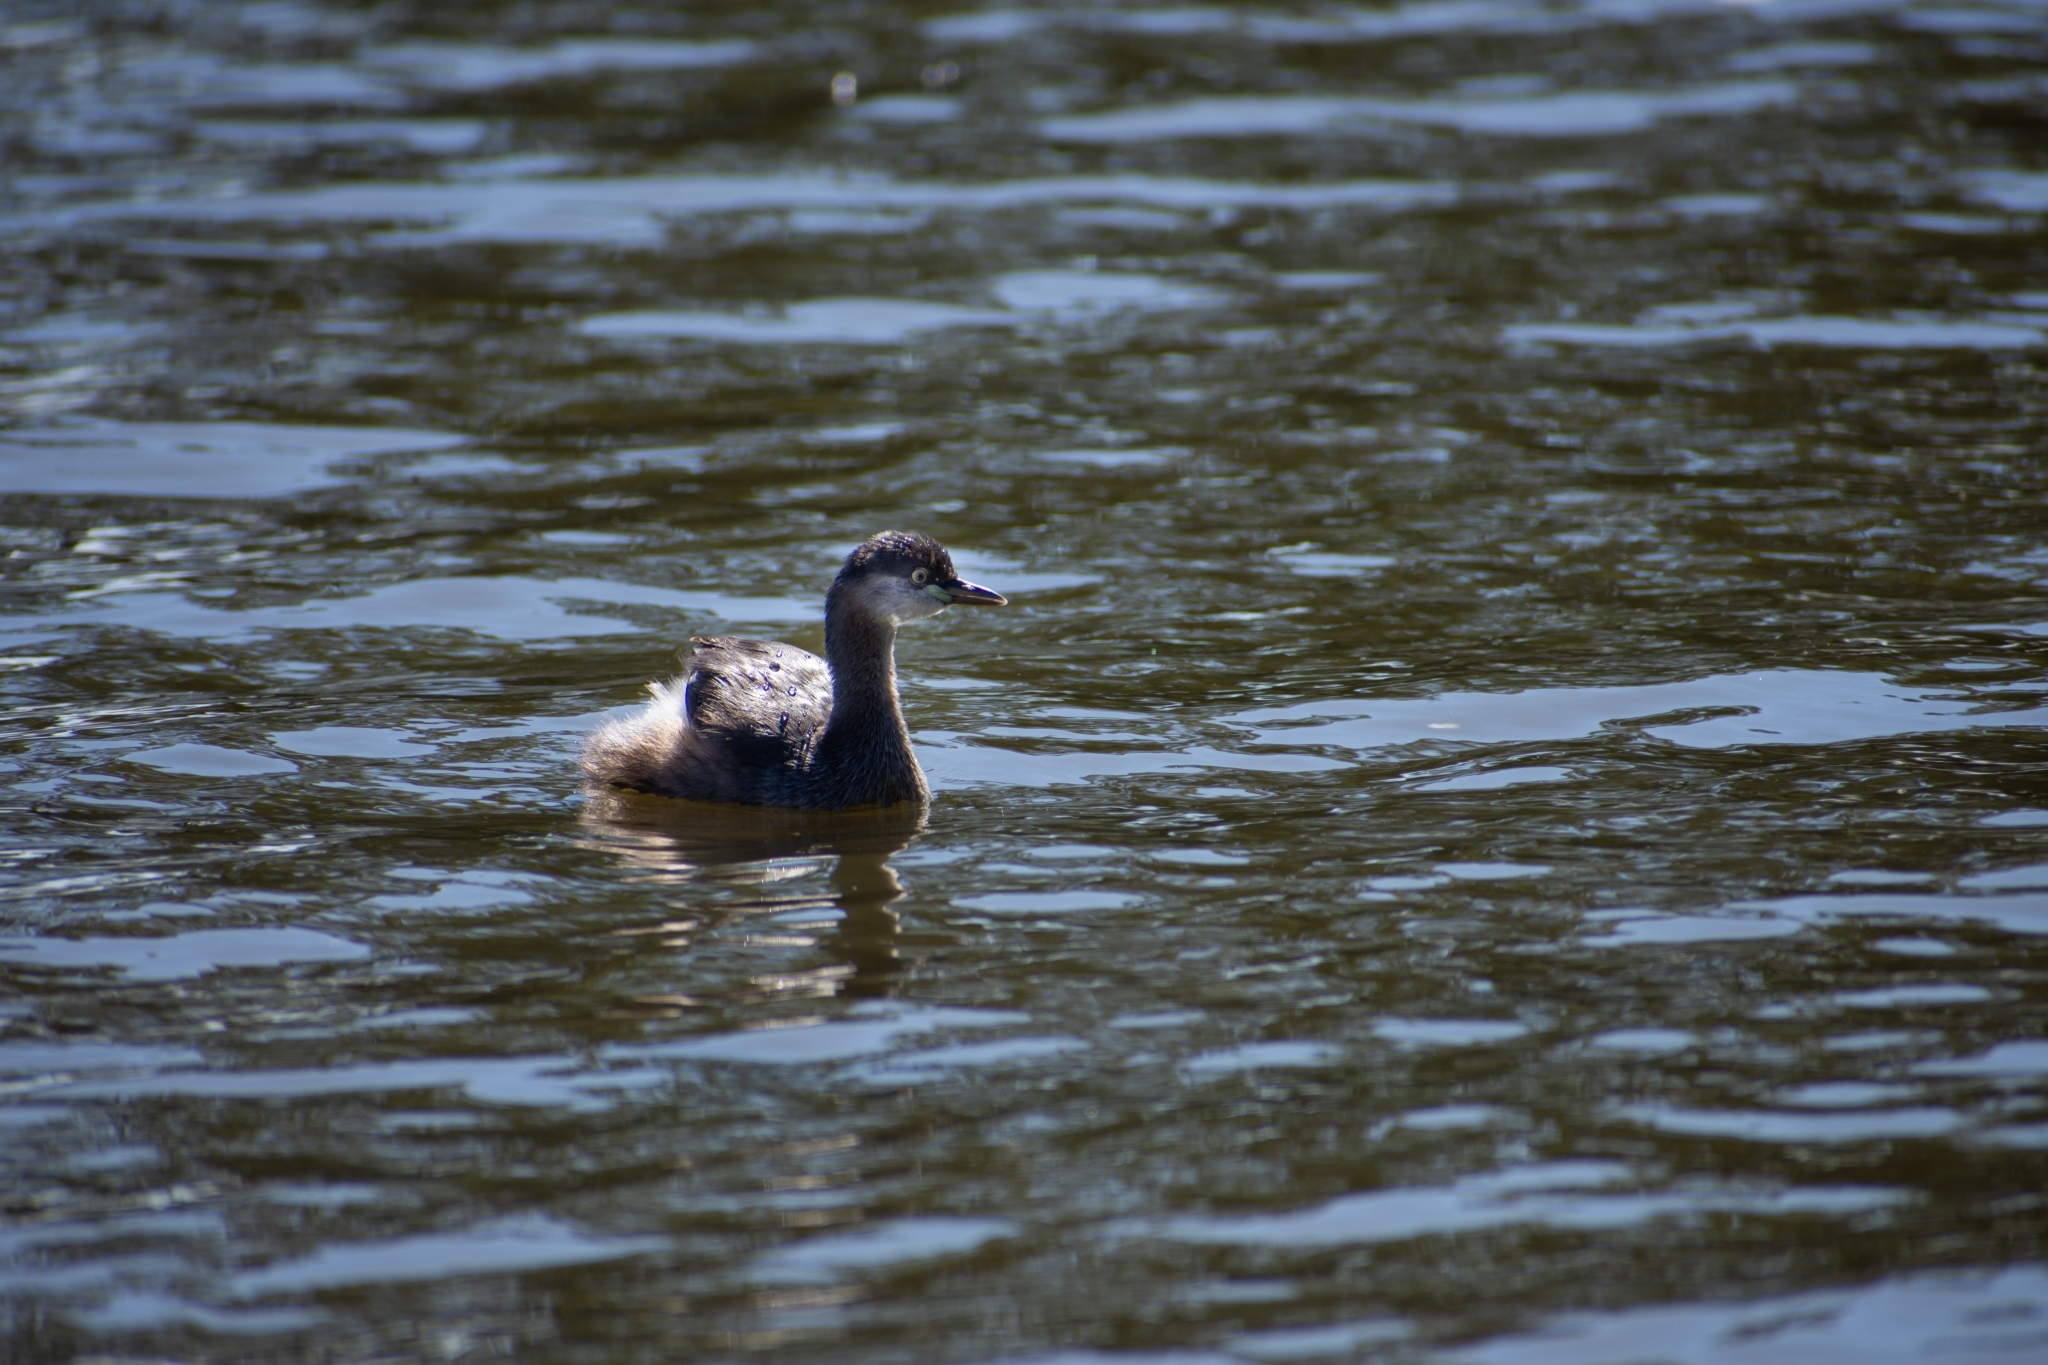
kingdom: Animalia
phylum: Chordata
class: Aves
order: Podicipediformes
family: Podicipedidae
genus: Tachybaptus
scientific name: Tachybaptus novaehollandiae
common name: Australasian grebe
